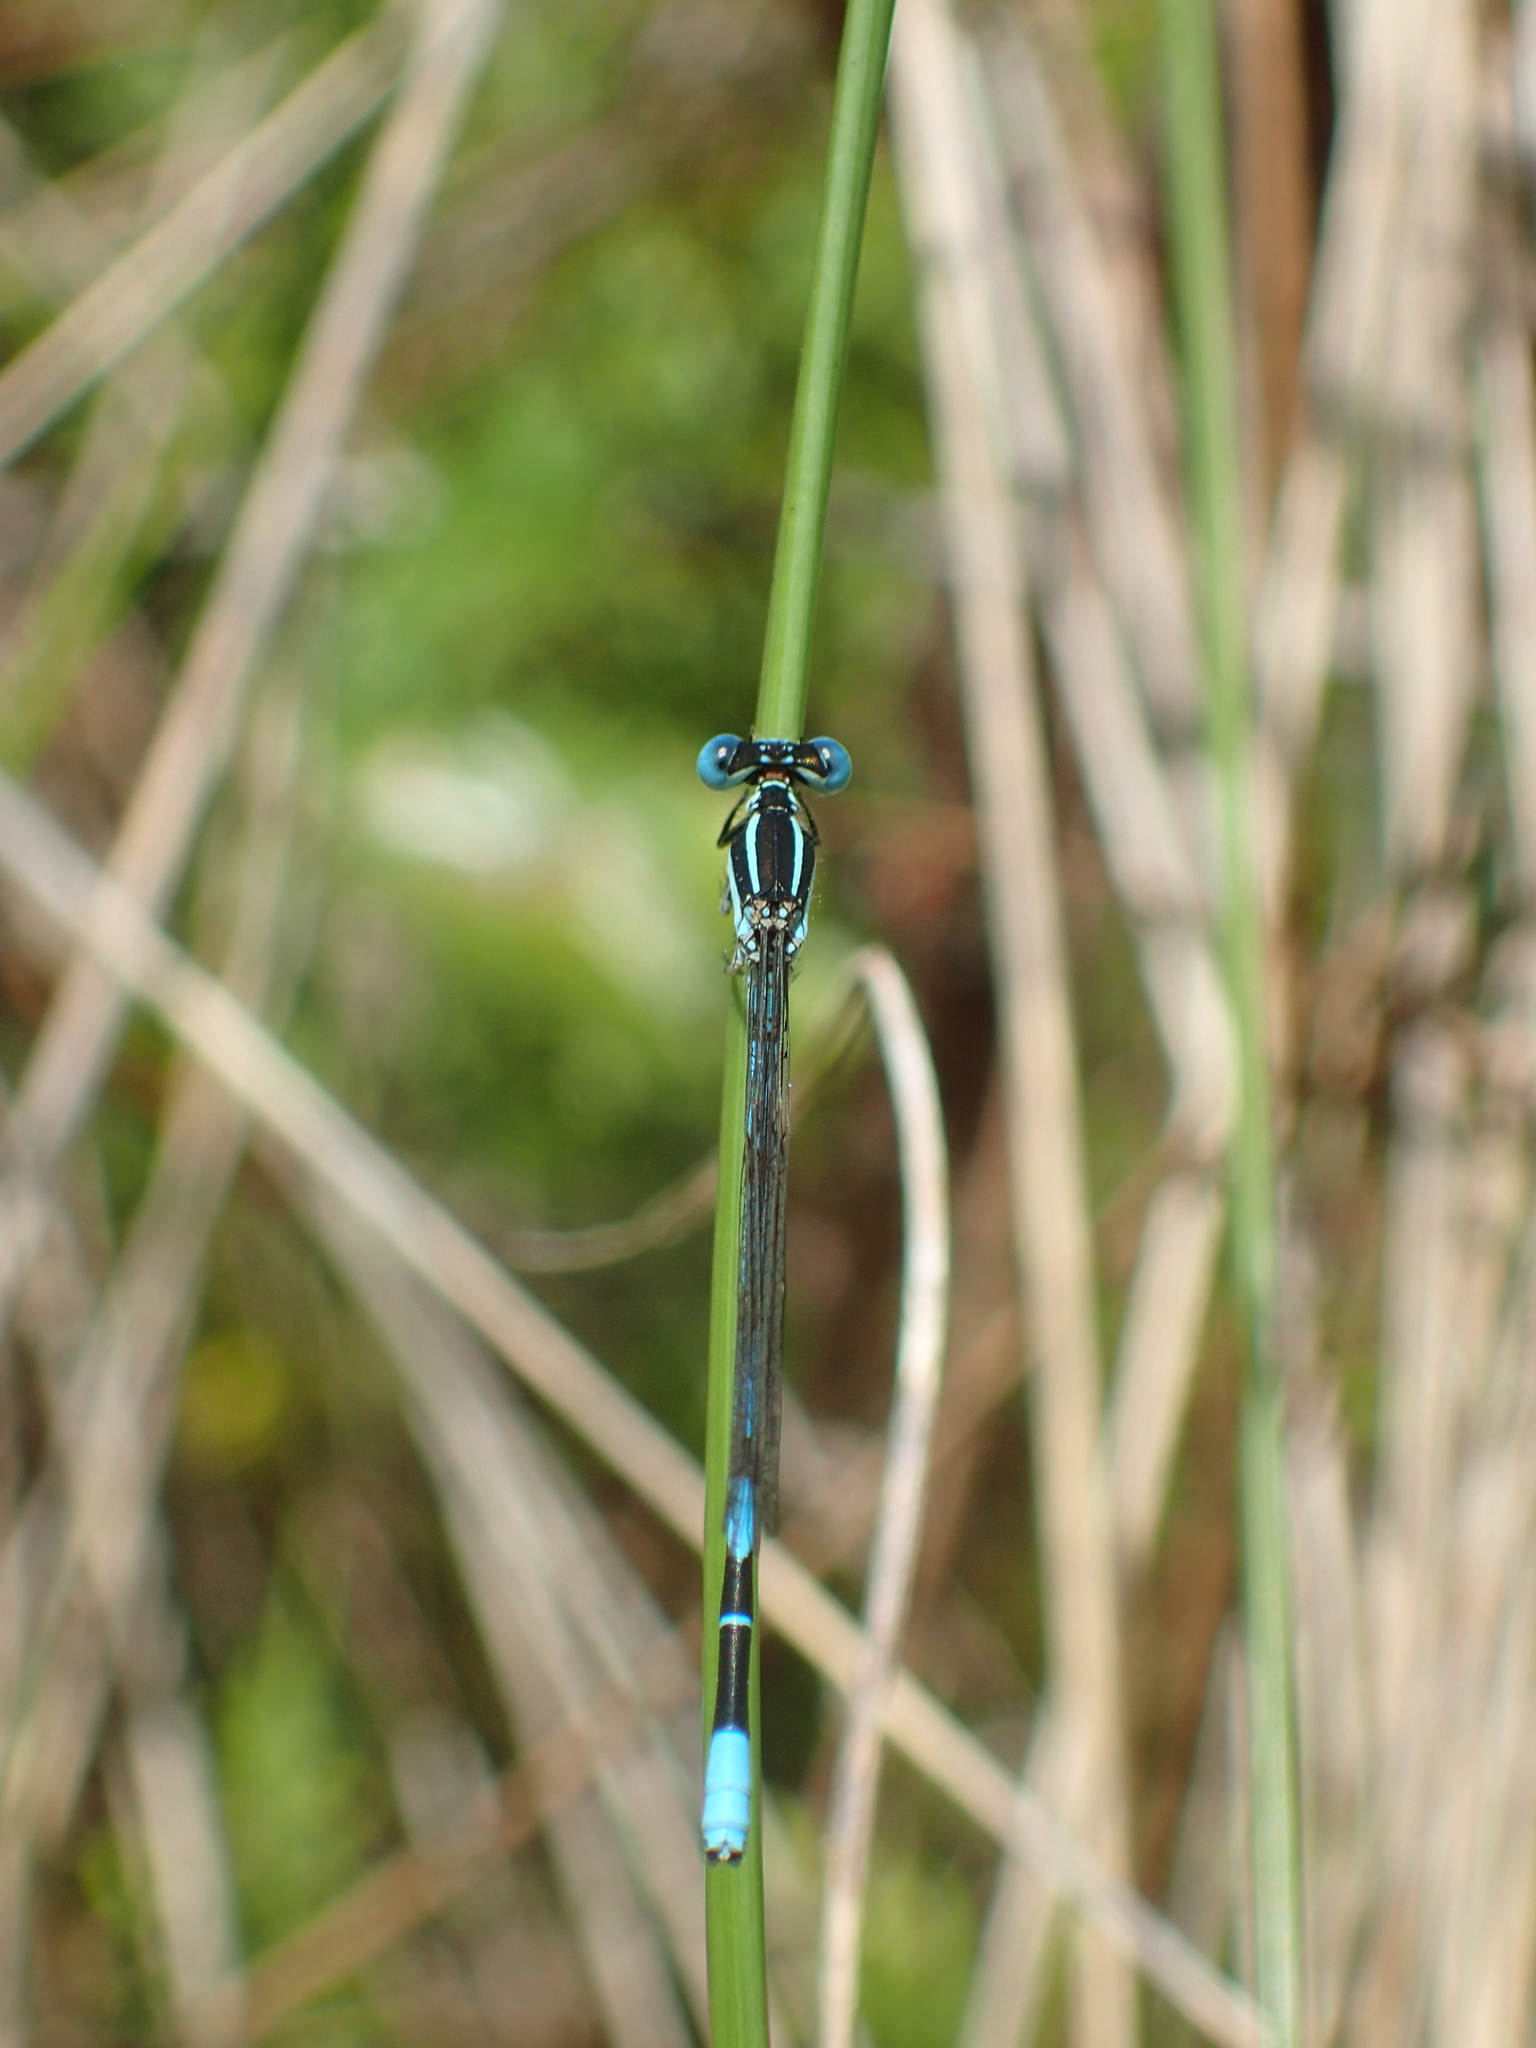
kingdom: Animalia
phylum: Arthropoda
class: Insecta
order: Odonata
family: Coenagrionidae
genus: Argia
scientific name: Argia bipunctulata
